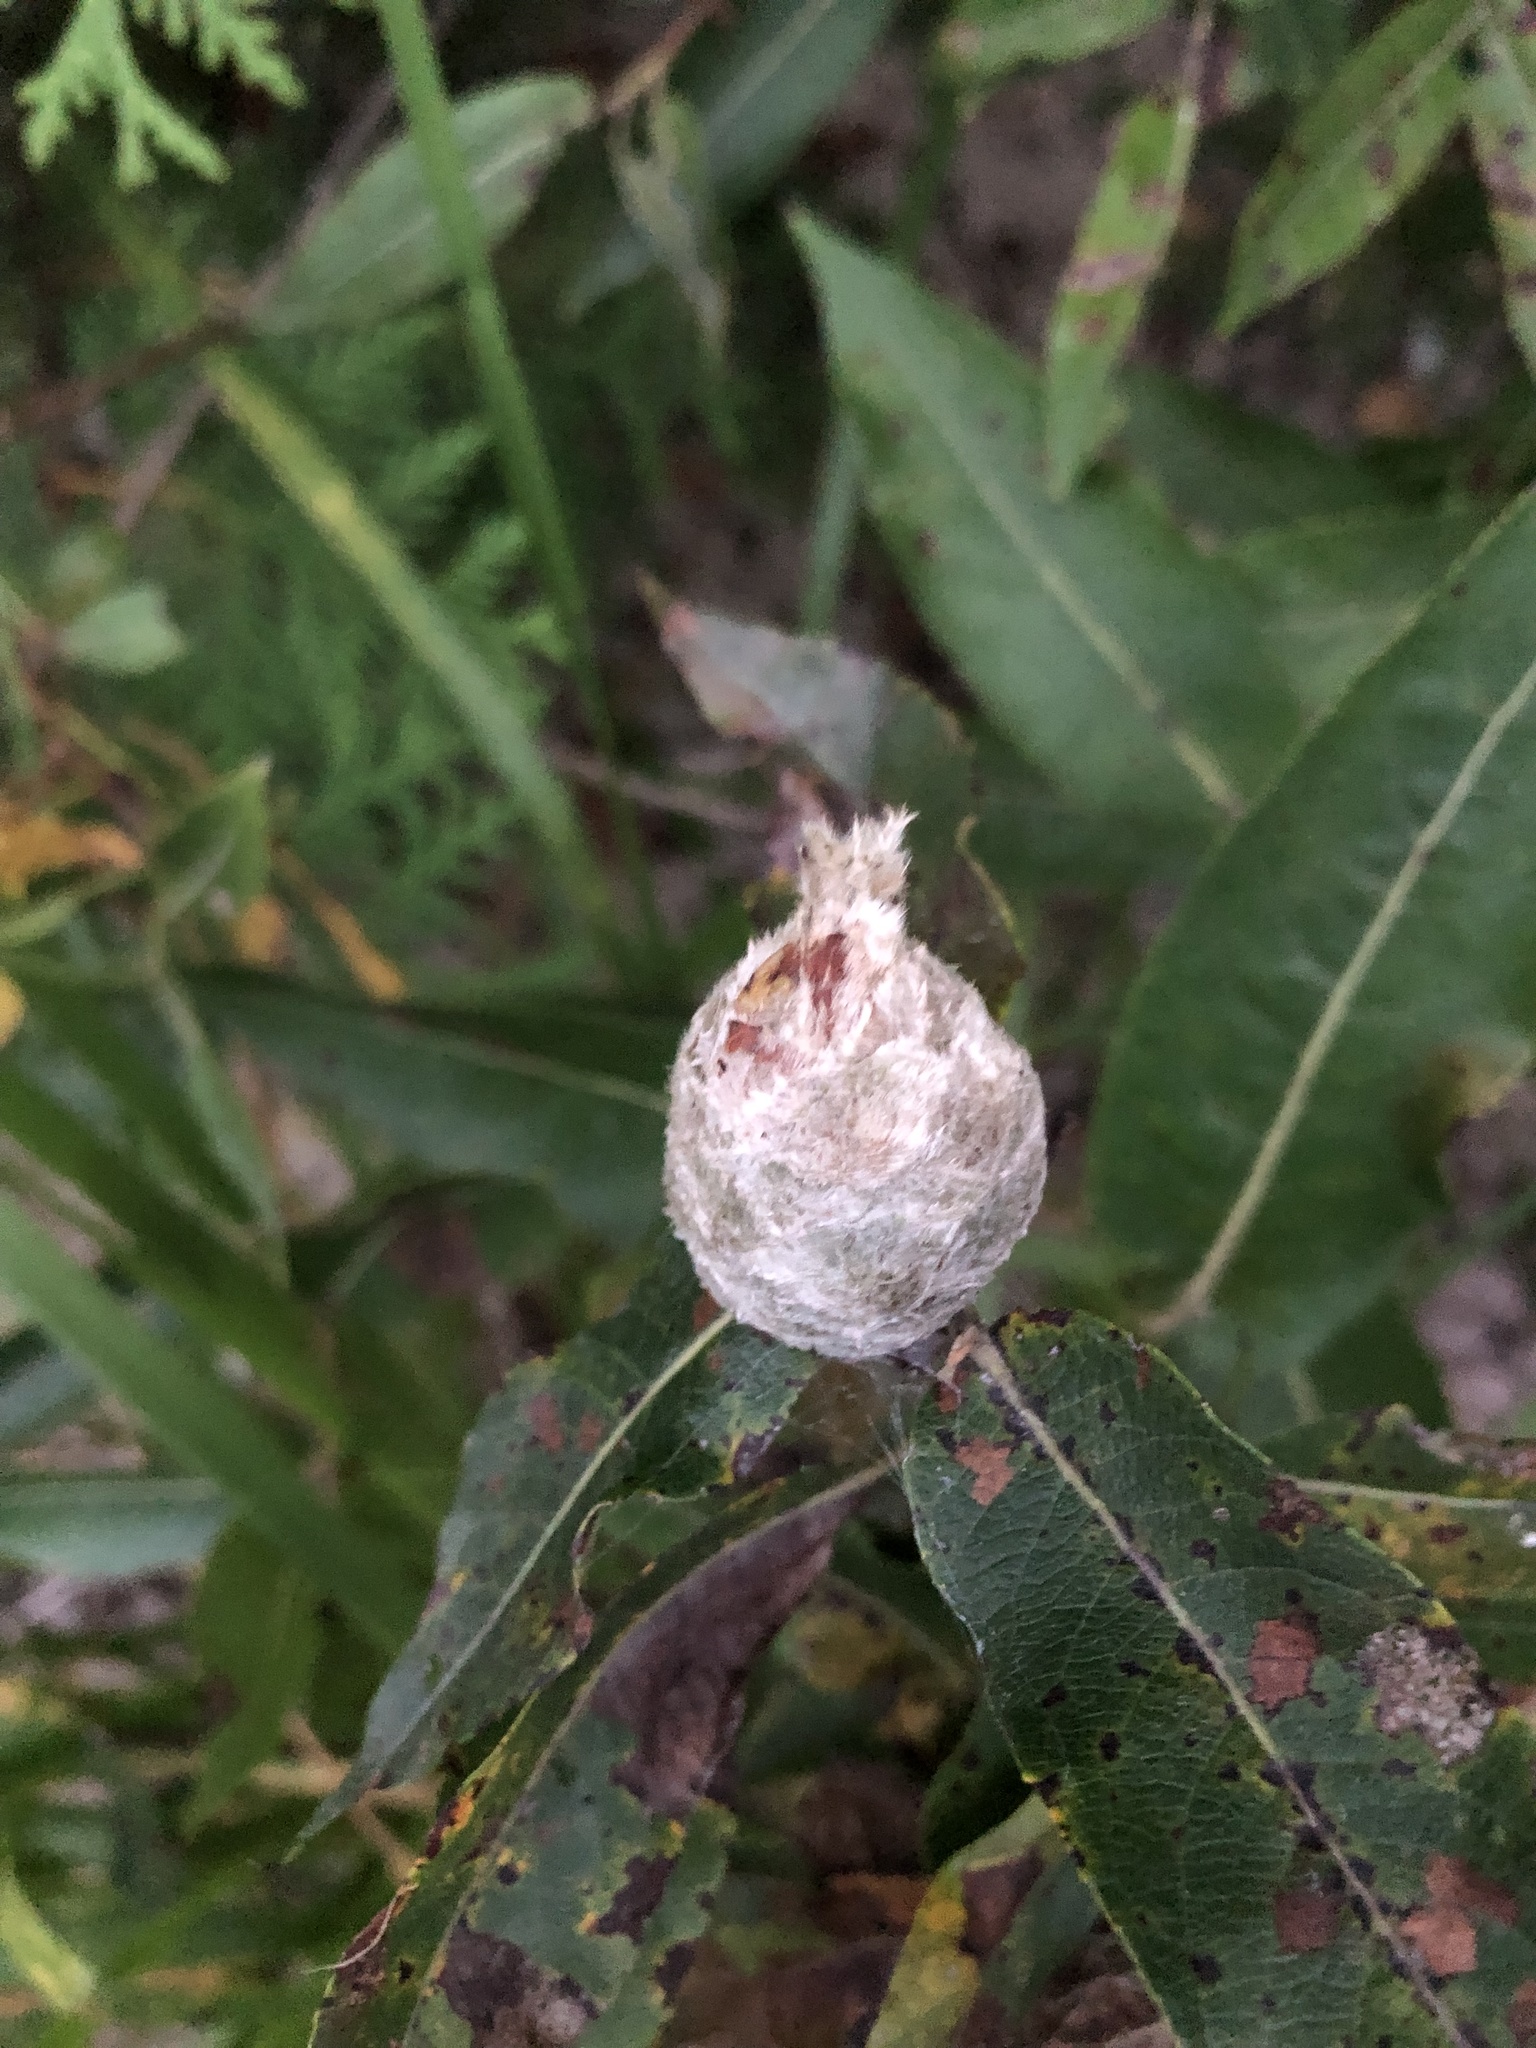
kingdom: Animalia
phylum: Arthropoda
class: Insecta
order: Diptera
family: Cecidomyiidae
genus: Rabdophaga
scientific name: Rabdophaga strobiloides
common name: Willow pinecone gall midge
